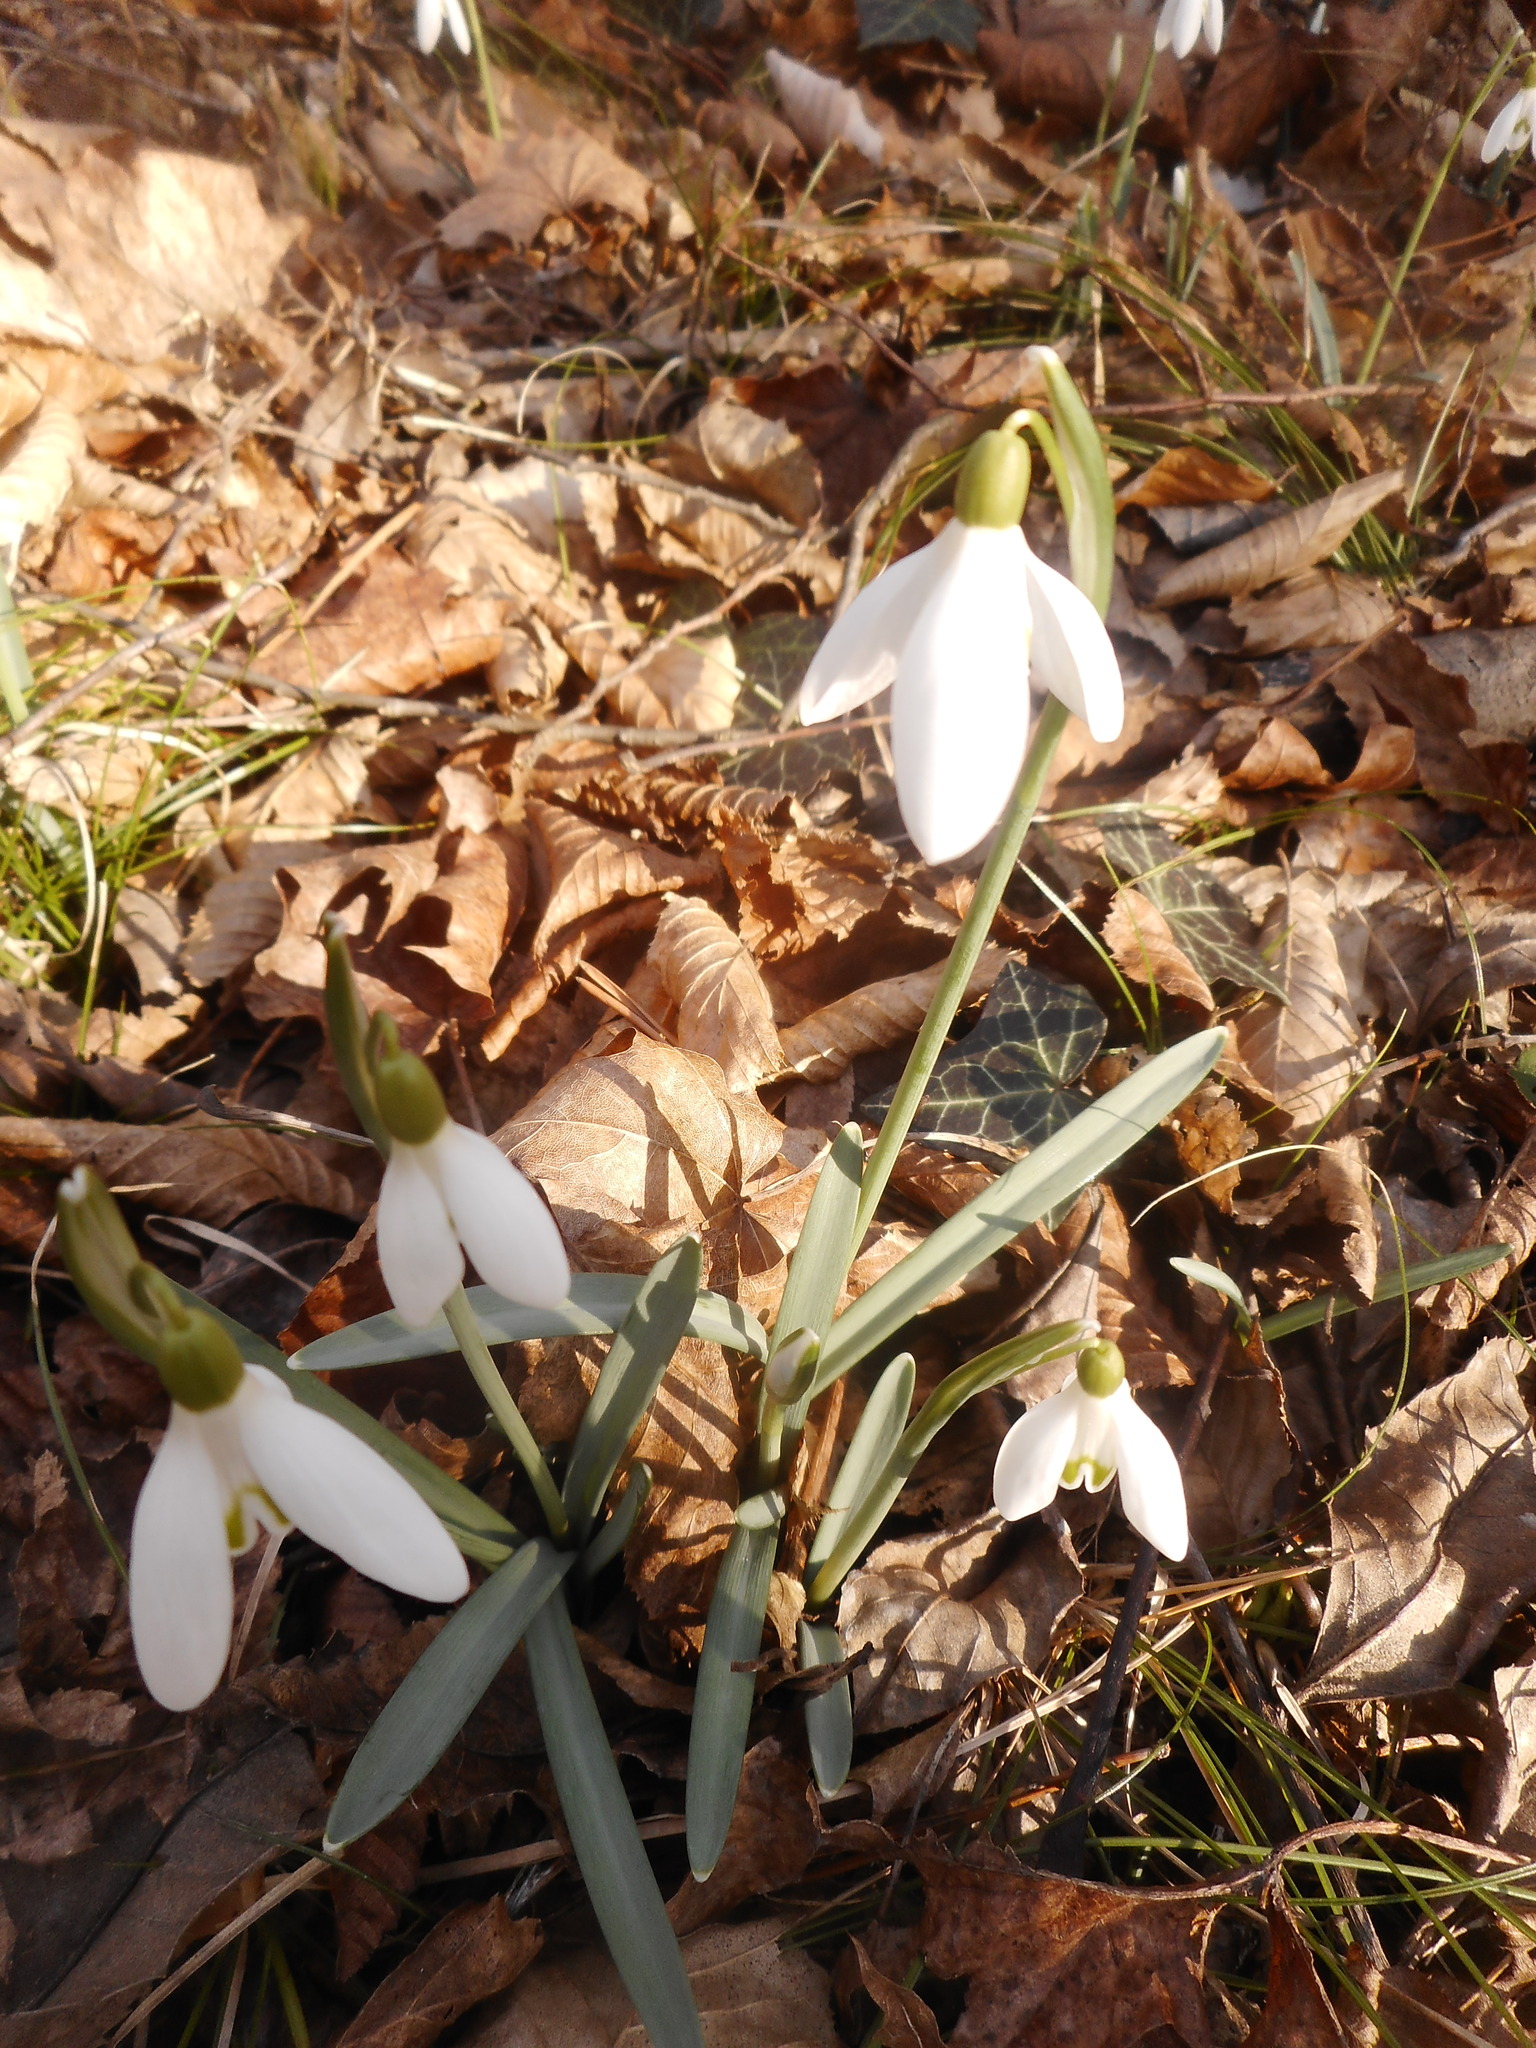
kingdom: Plantae
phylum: Tracheophyta
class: Liliopsida
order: Asparagales
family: Amaryllidaceae
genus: Galanthus
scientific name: Galanthus nivalis
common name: Snowdrop
